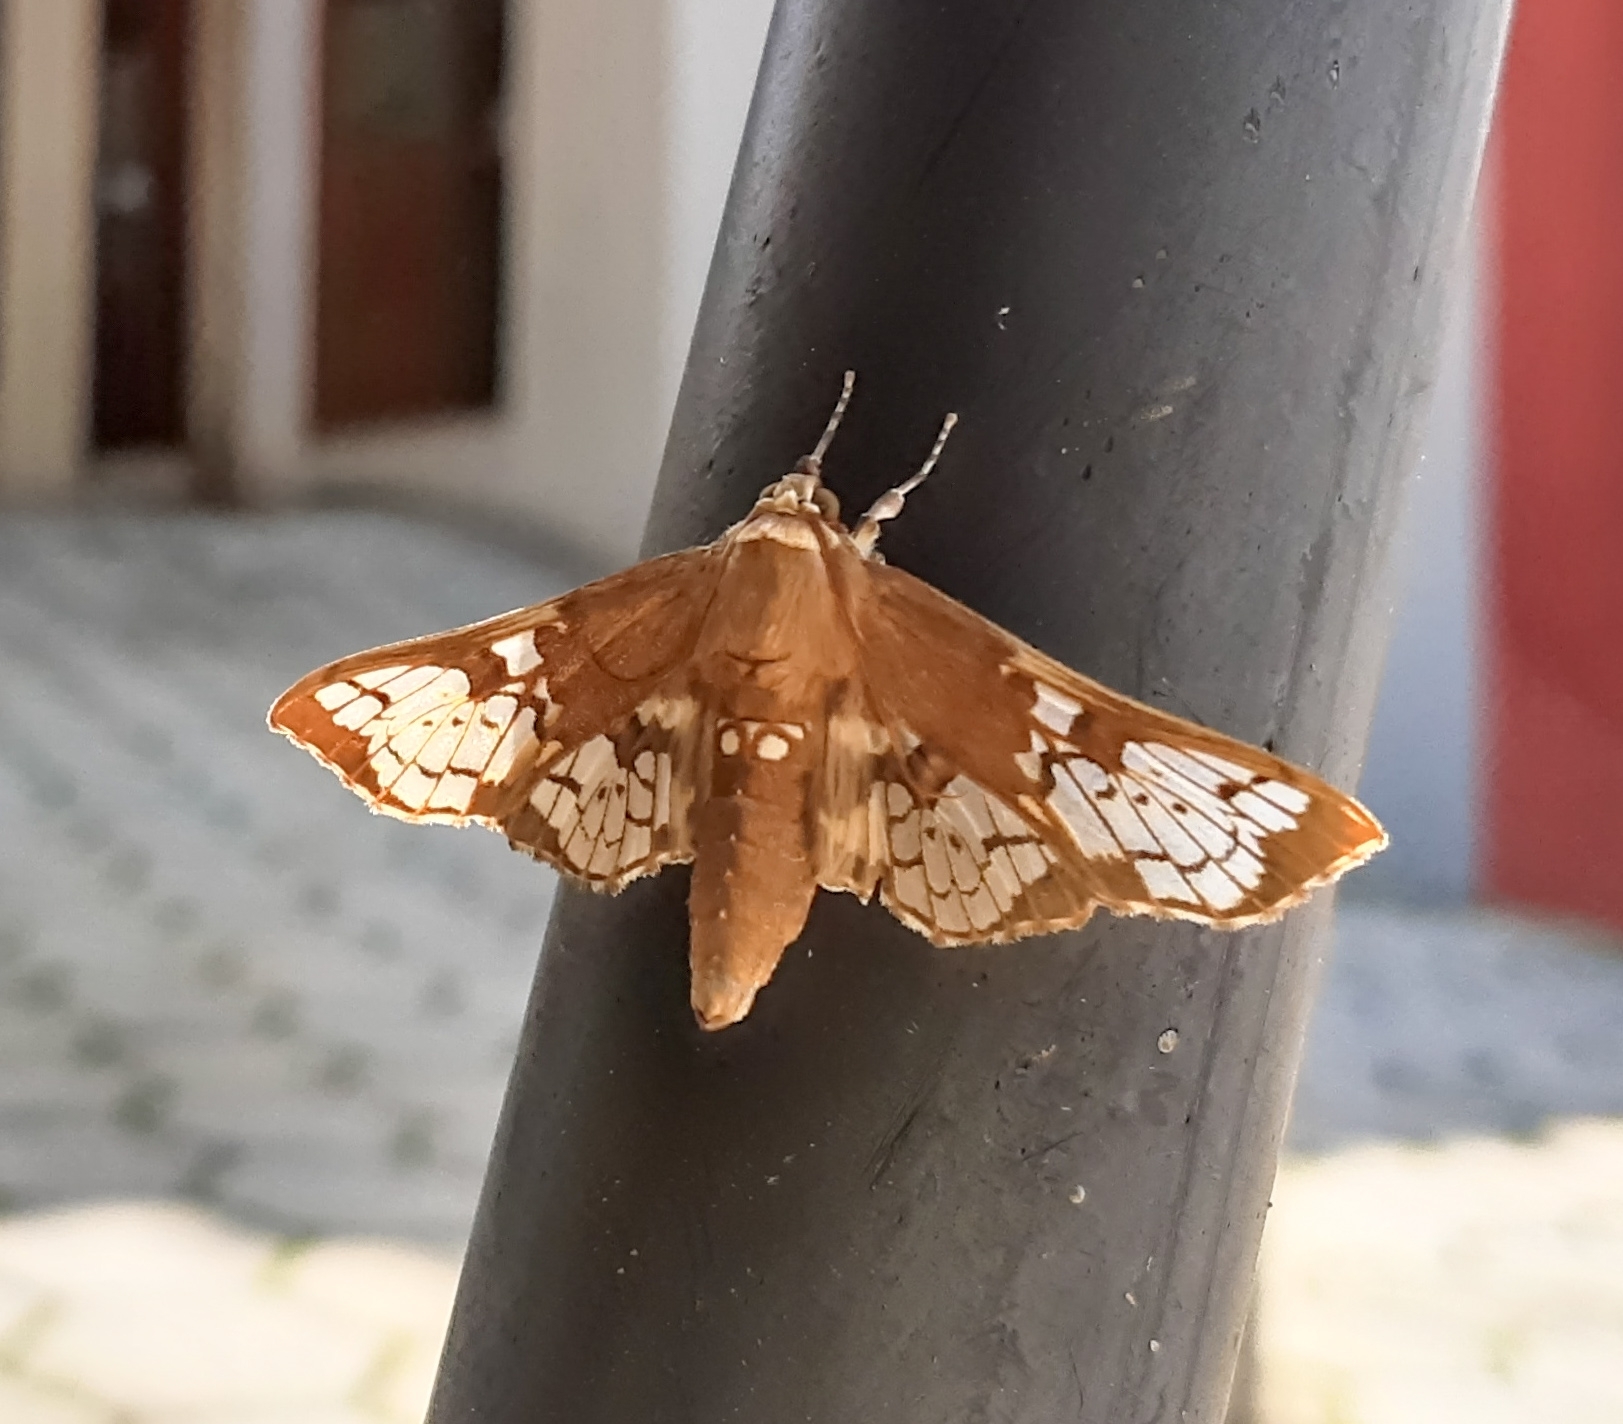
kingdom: Animalia
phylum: Arthropoda
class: Insecta
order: Lepidoptera
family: Crambidae
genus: Megastes
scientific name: Megastes major
